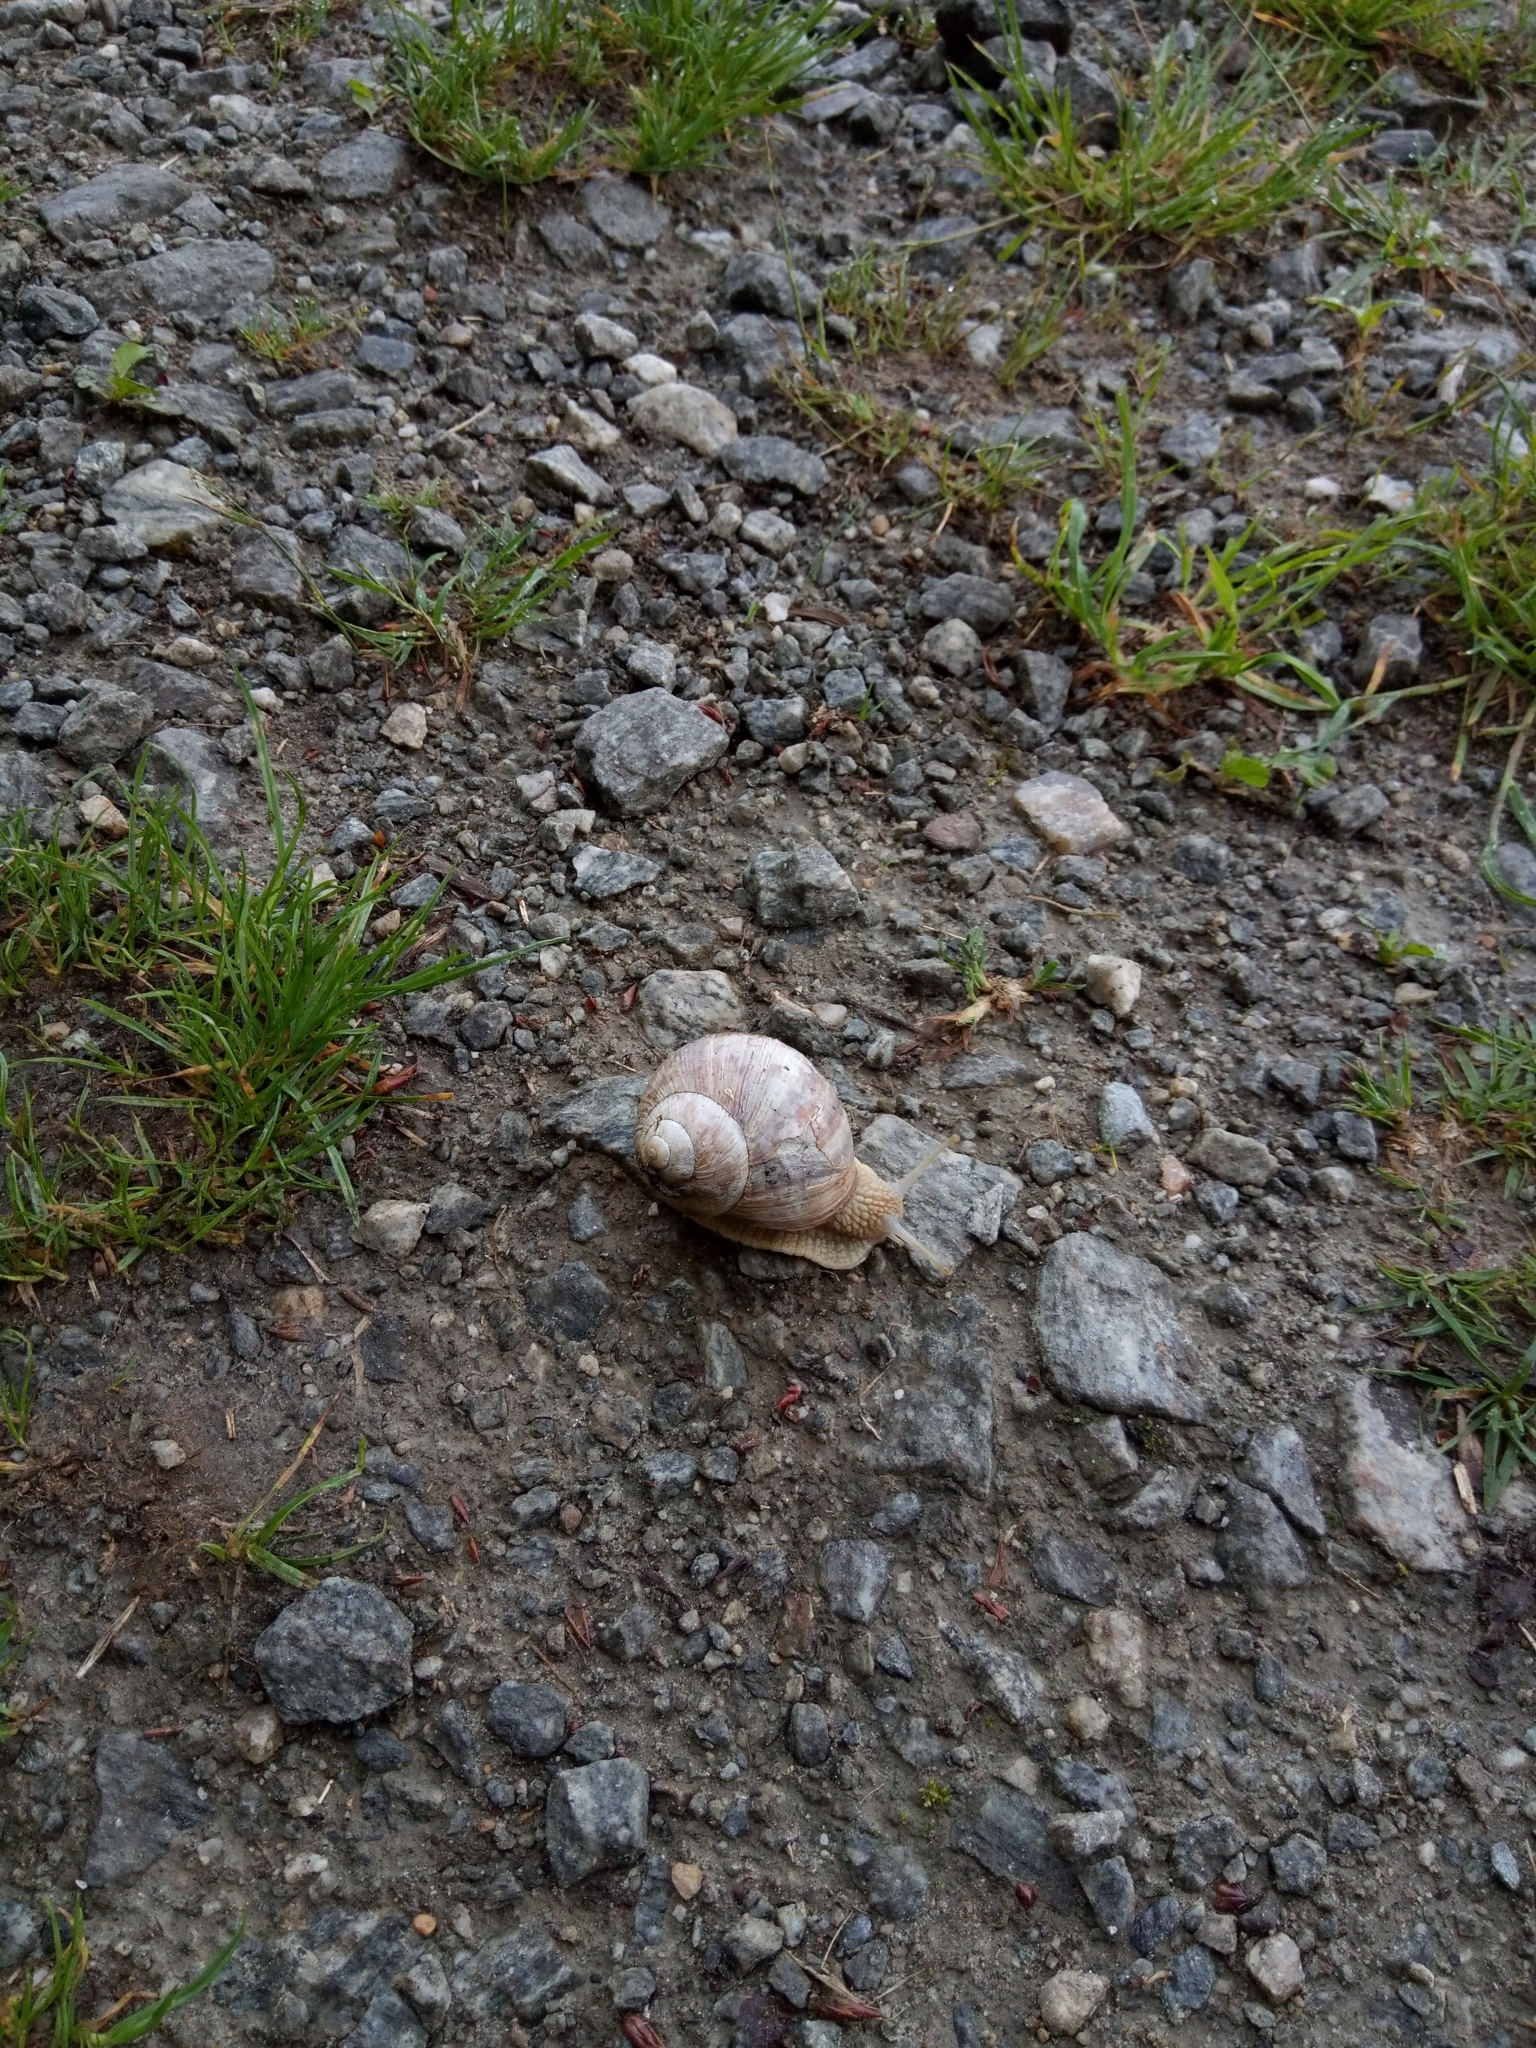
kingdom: Animalia
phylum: Mollusca
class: Gastropoda
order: Stylommatophora
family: Helicidae
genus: Helix
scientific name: Helix pomatia
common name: Roman snail
